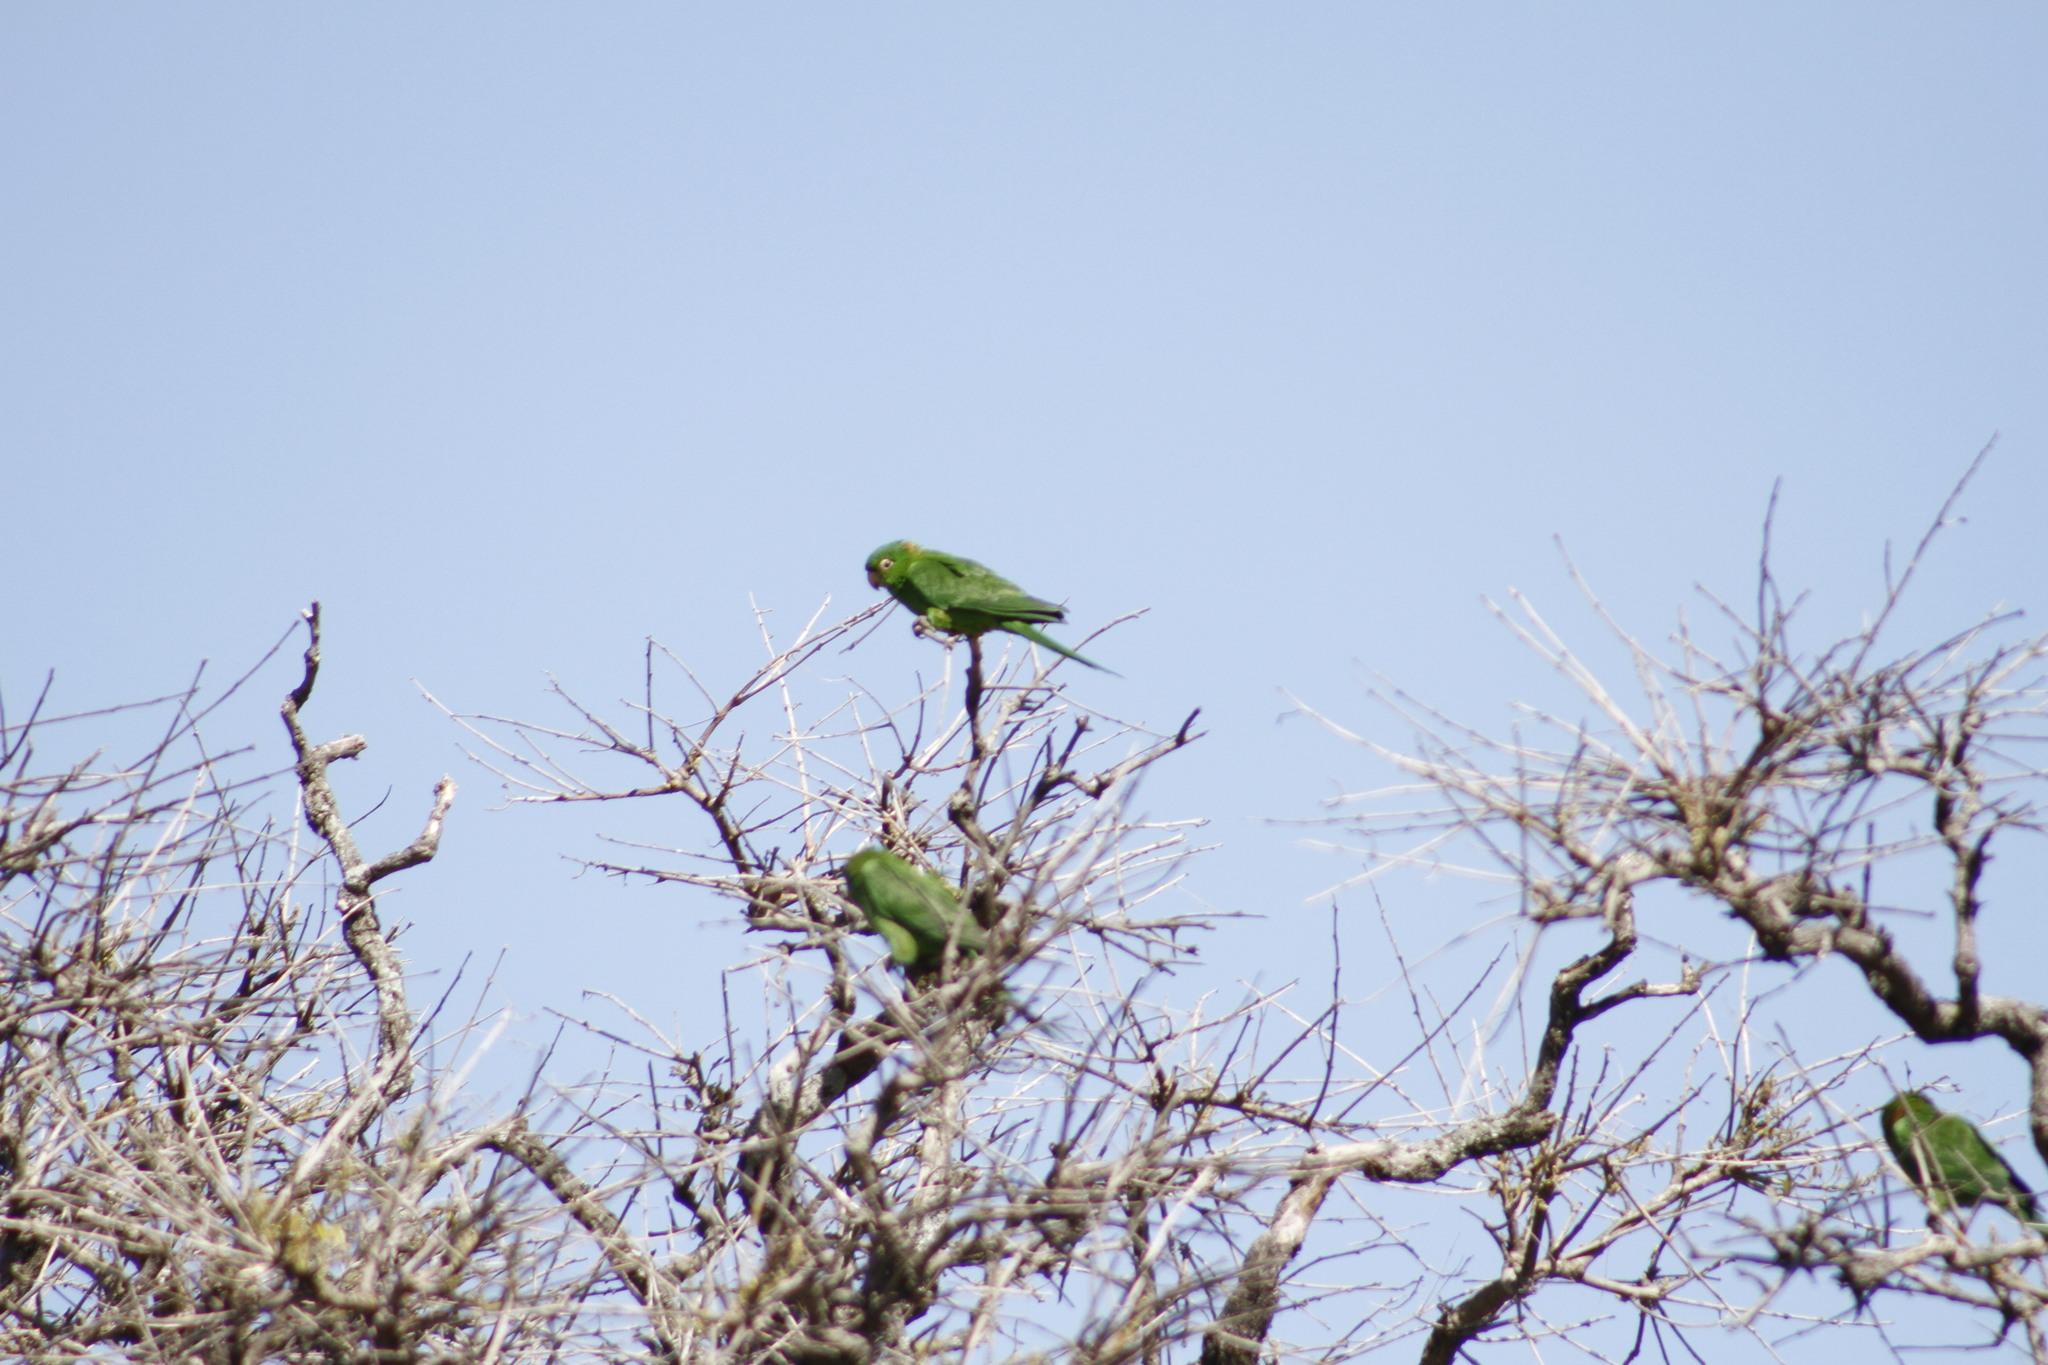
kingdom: Animalia
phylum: Chordata
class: Aves
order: Psittaciformes
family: Psittacidae
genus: Aratinga
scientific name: Aratinga leucophthalma
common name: White-eyed parakeet
